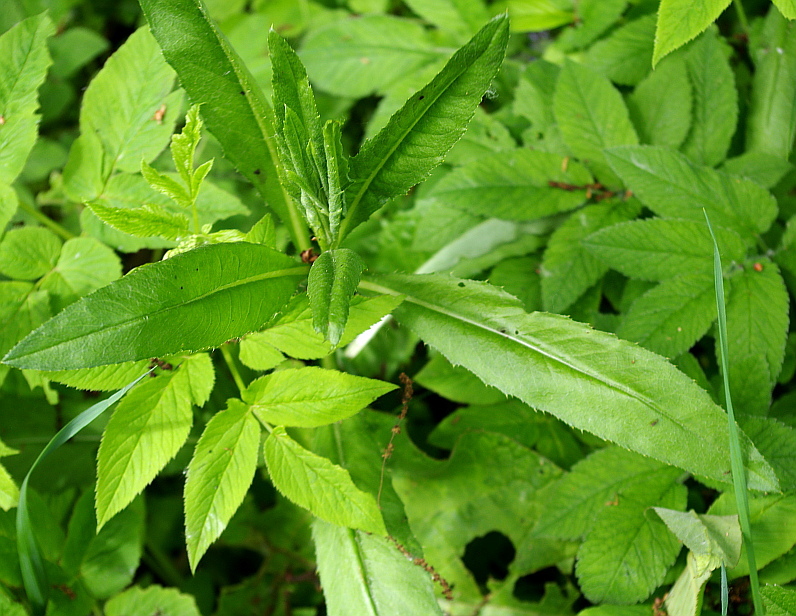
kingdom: Plantae
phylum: Tracheophyta
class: Magnoliopsida
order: Asterales
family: Asteraceae
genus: Cirsium
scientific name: Cirsium arvense
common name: Creeping thistle
